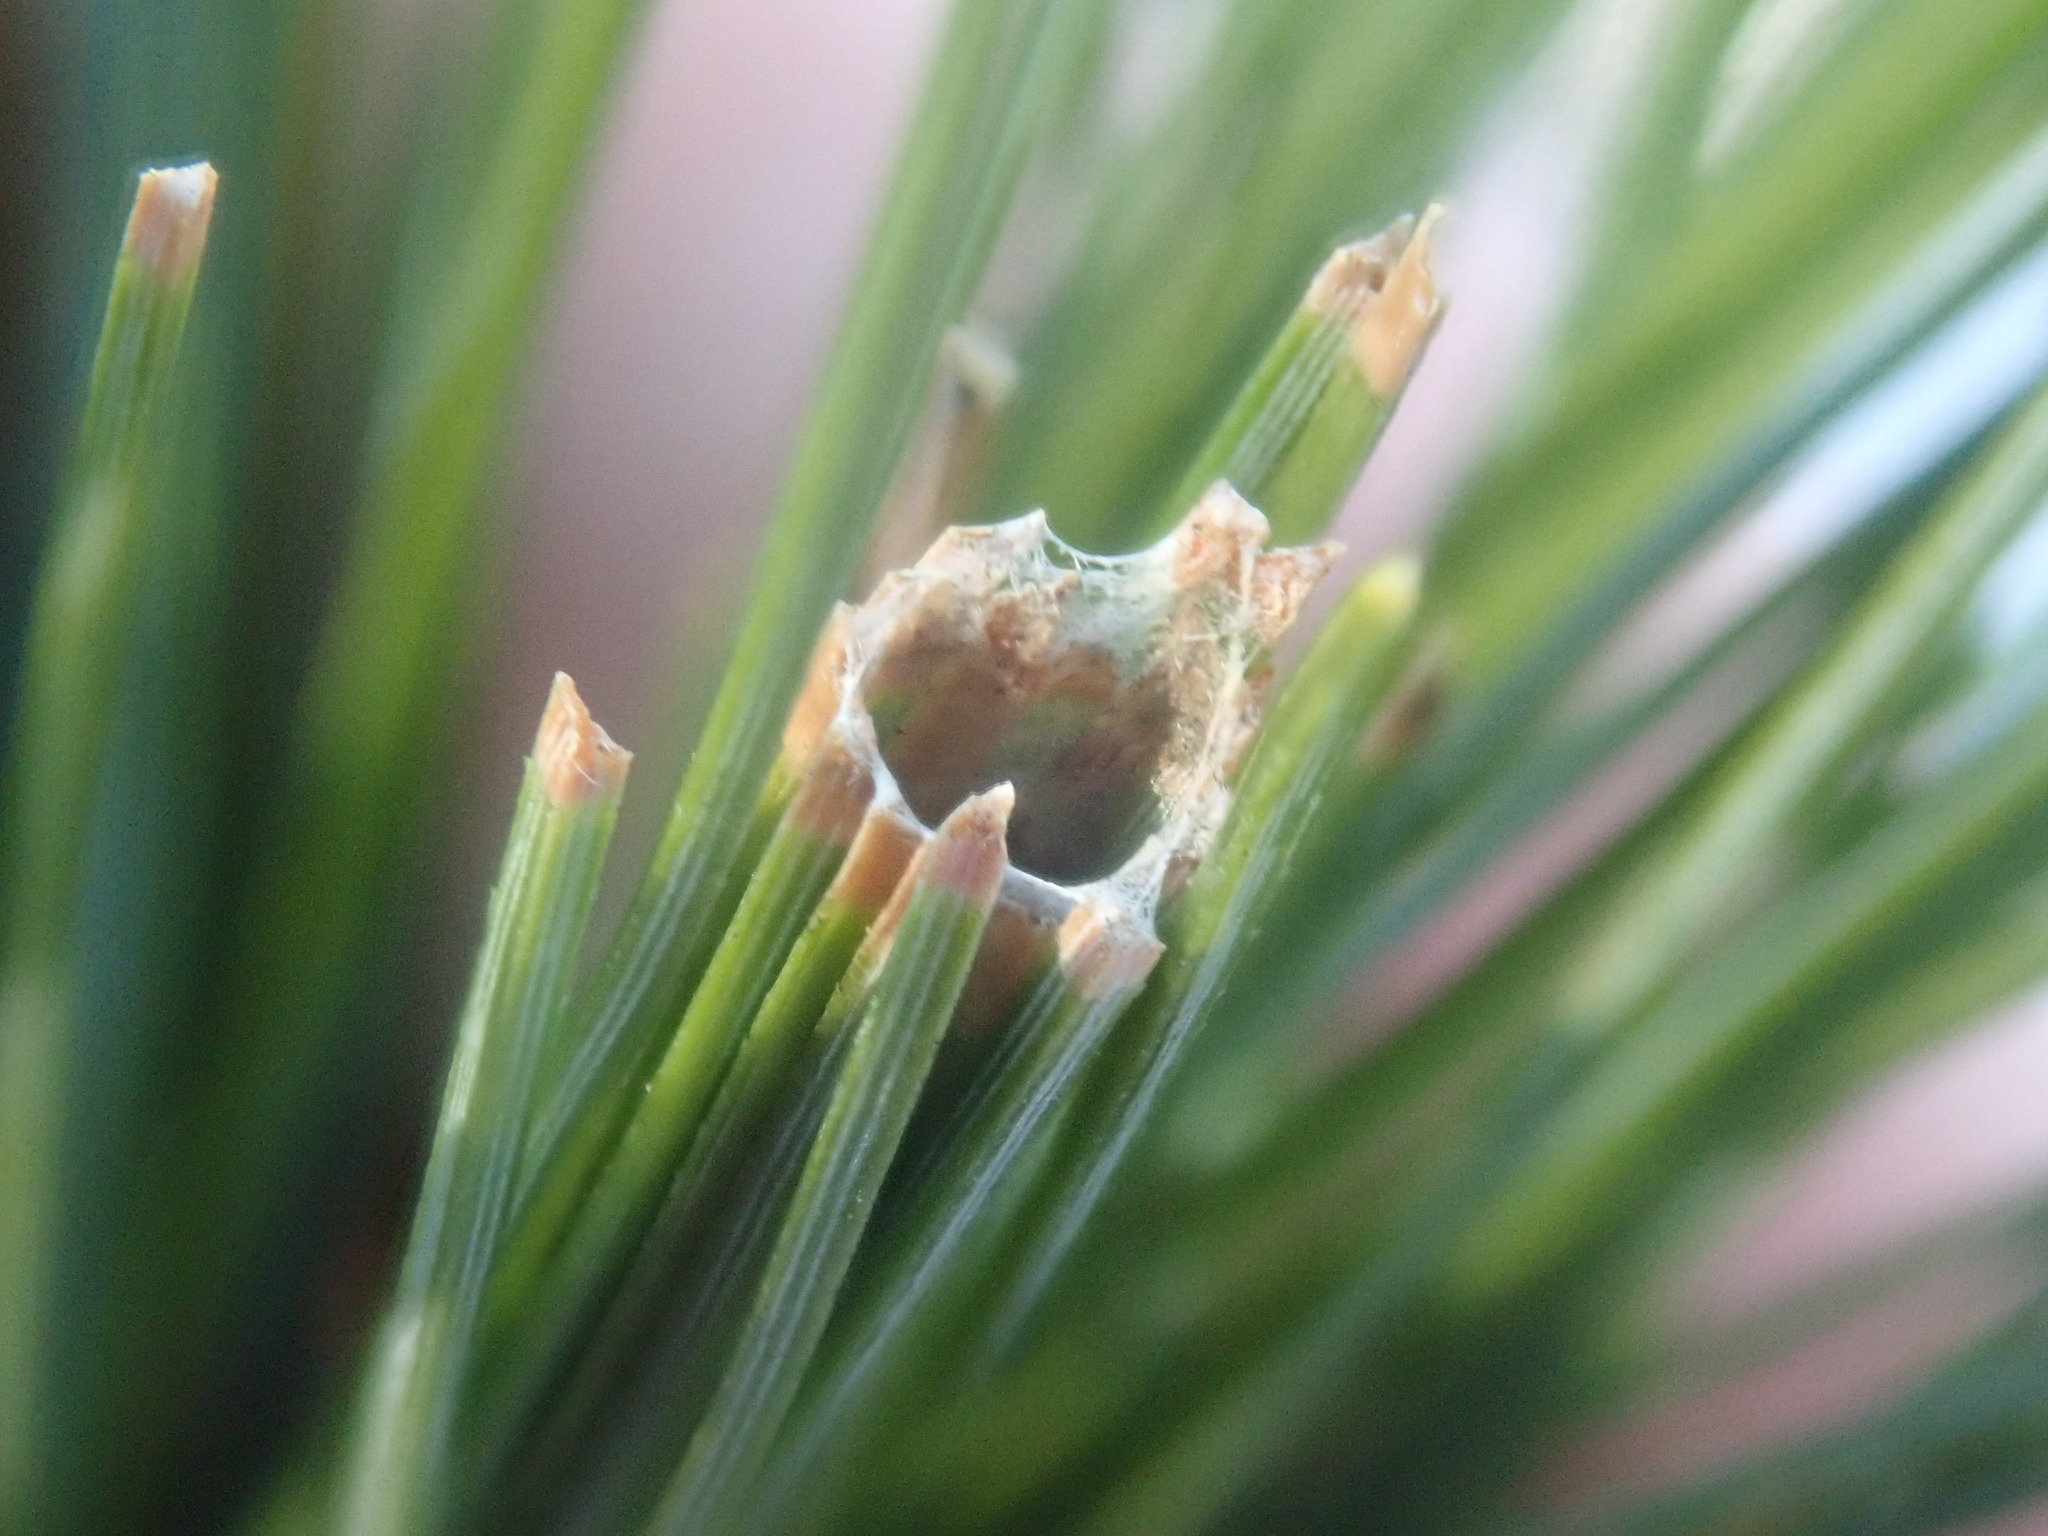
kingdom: Animalia
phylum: Arthropoda
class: Insecta
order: Lepidoptera
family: Tortricidae
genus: Argyrotaenia
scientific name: Argyrotaenia pinatubana
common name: Pine tube moth
